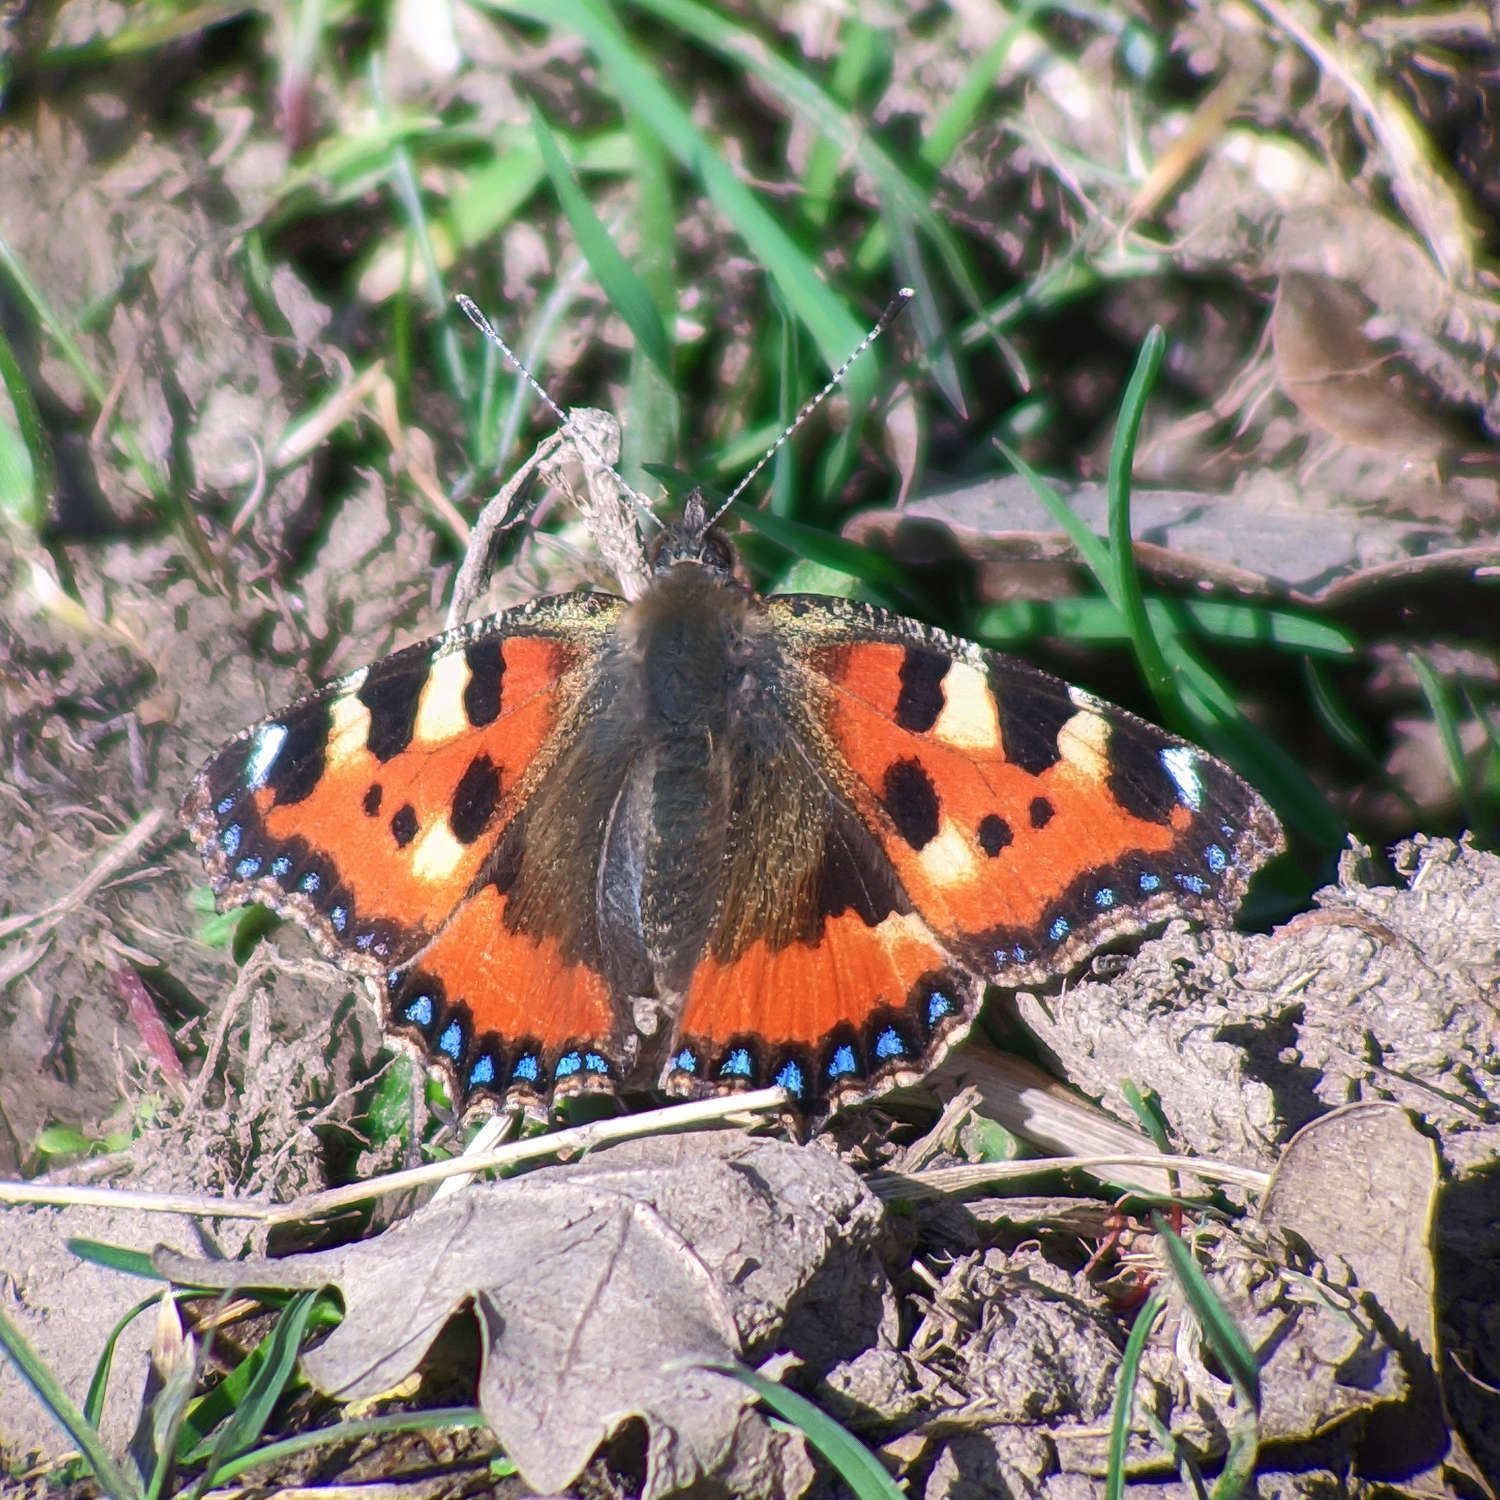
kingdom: Animalia
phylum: Arthropoda
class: Insecta
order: Lepidoptera
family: Nymphalidae
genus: Aglais
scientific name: Aglais urticae
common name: Small tortoiseshell
